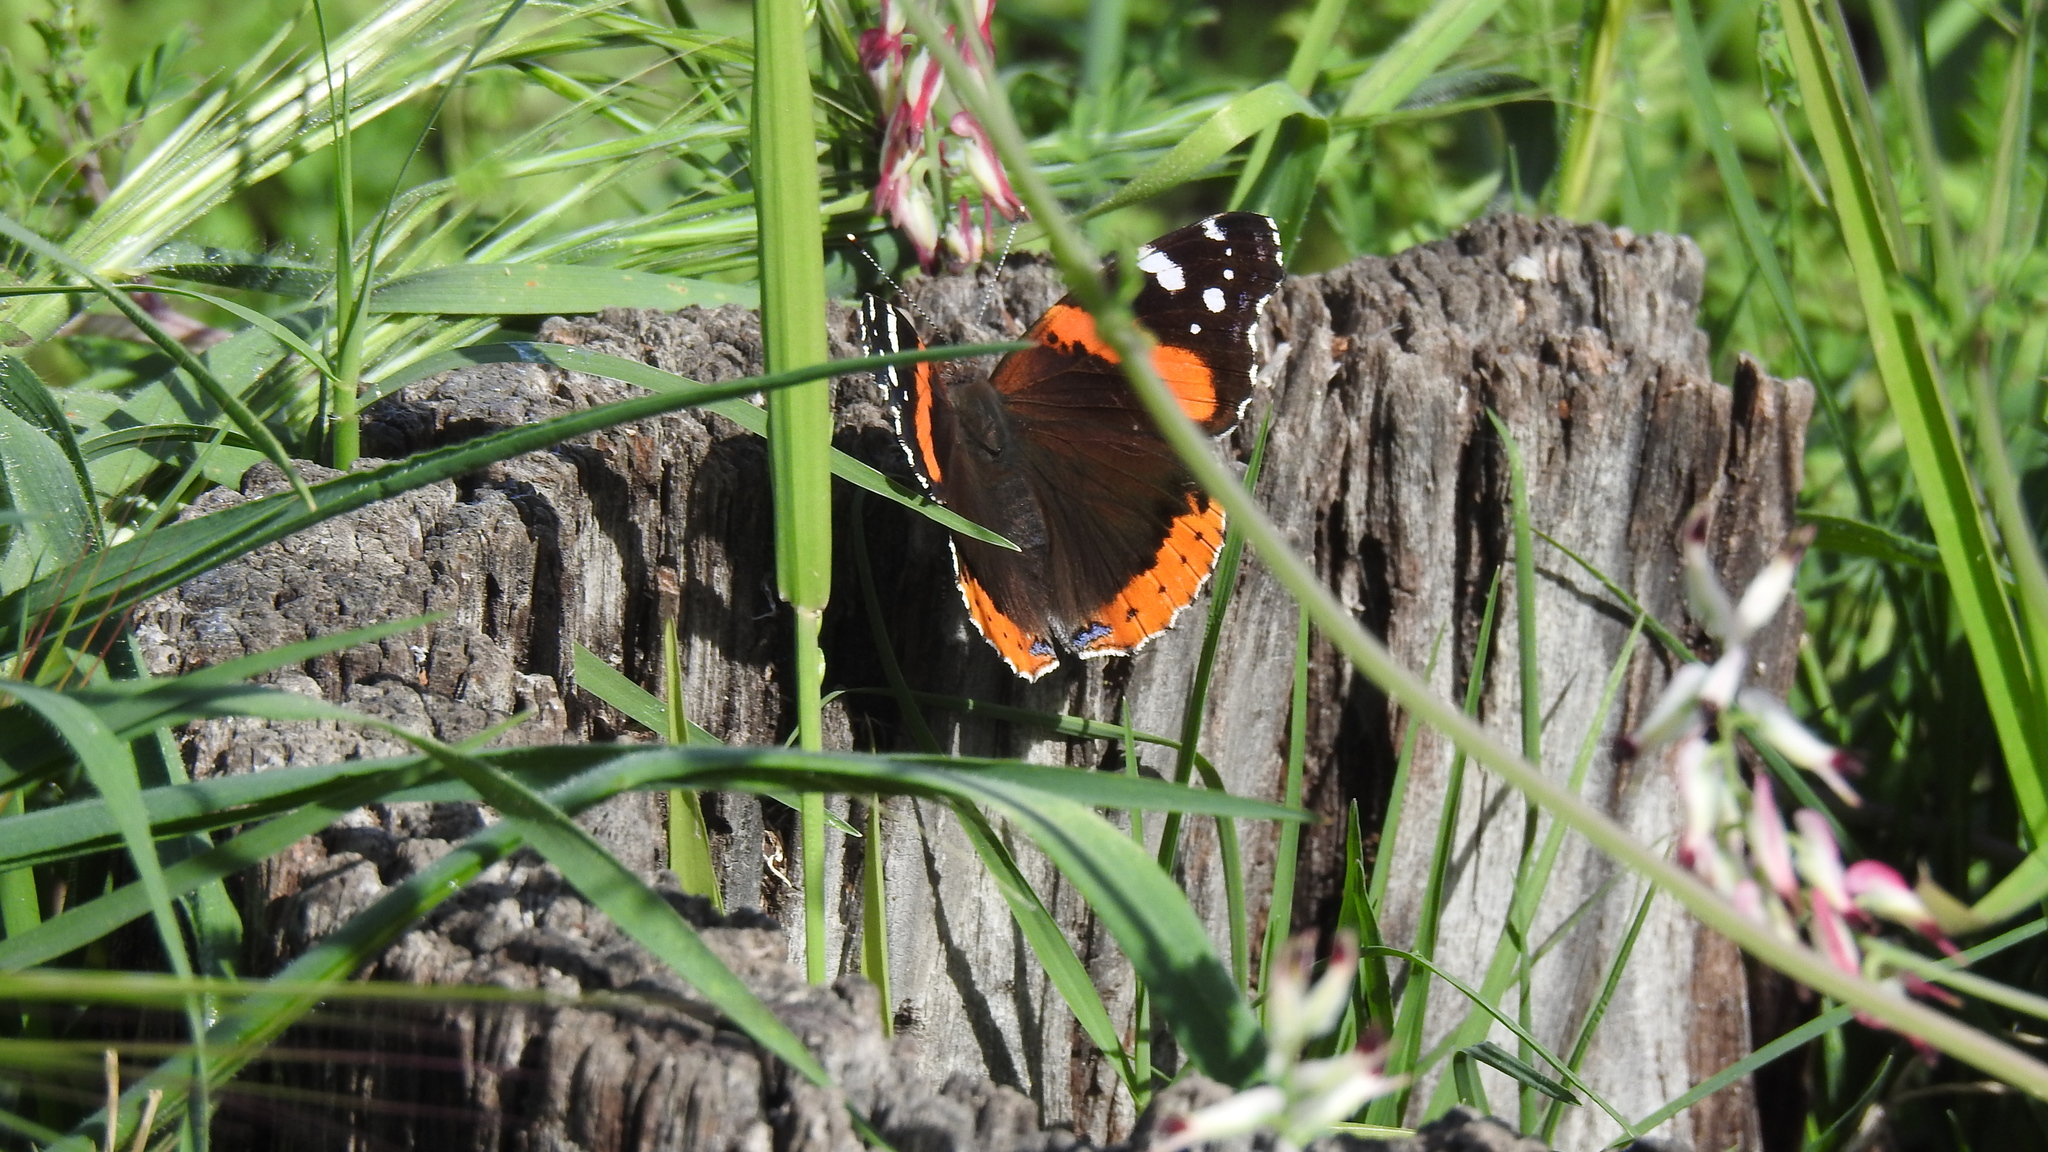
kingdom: Animalia
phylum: Arthropoda
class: Insecta
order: Lepidoptera
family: Nymphalidae
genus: Vanessa
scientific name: Vanessa atalanta
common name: Red admiral
